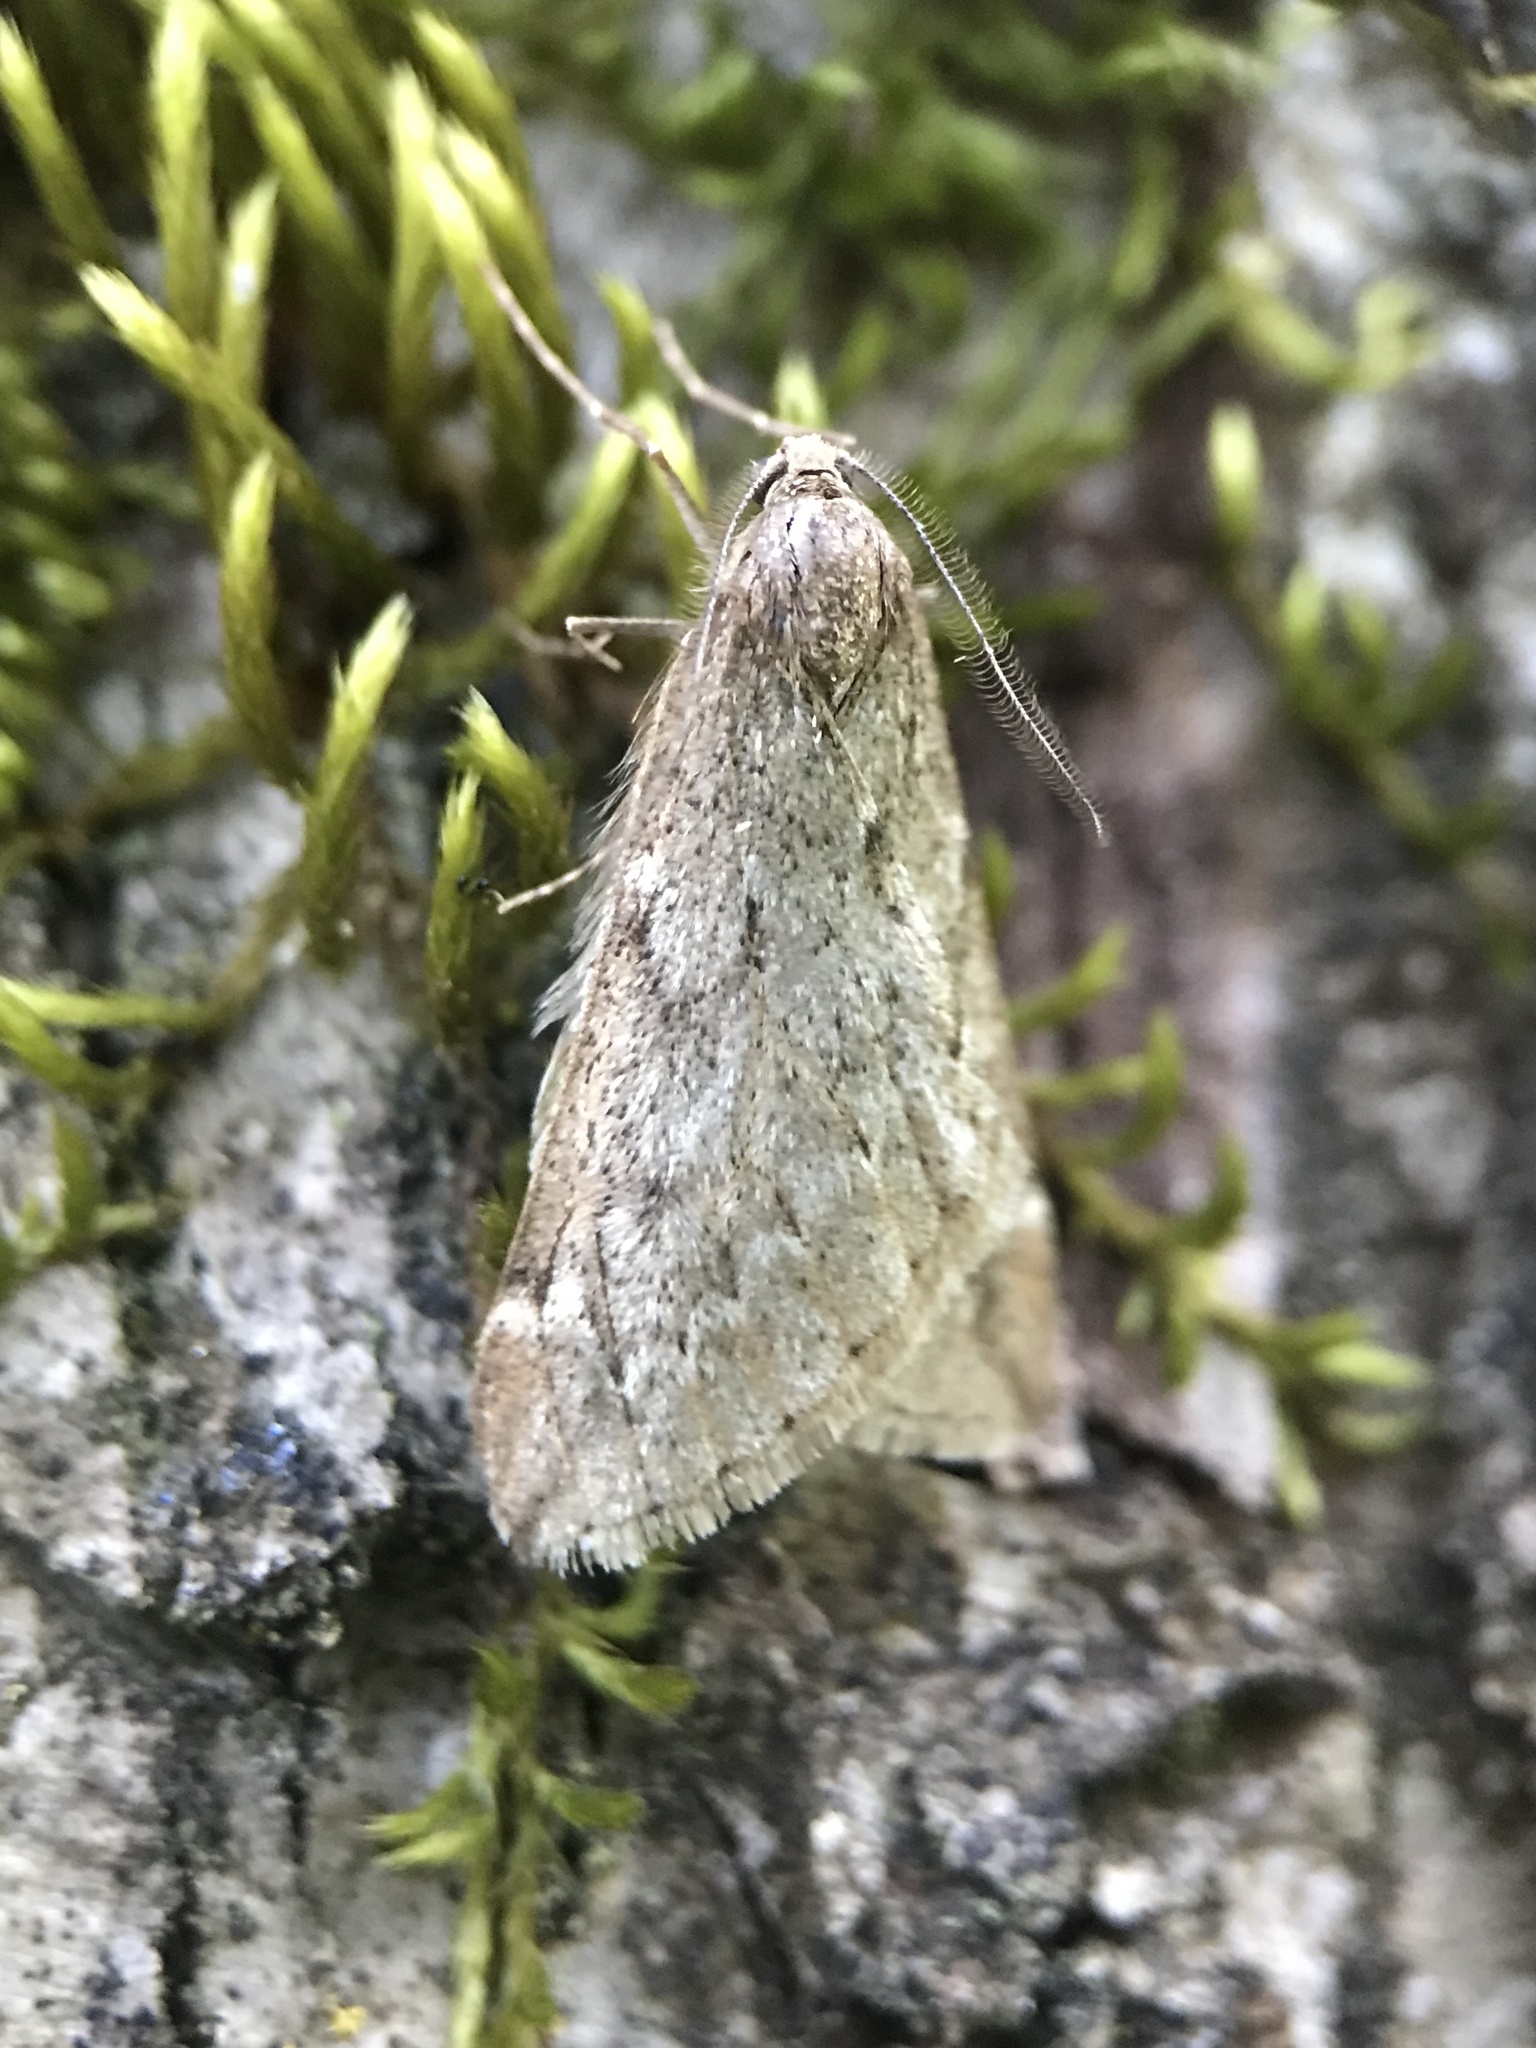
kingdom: Animalia
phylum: Arthropoda
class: Insecta
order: Lepidoptera
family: Geometridae
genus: Alsophila
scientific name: Alsophila aescularia
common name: March moth
